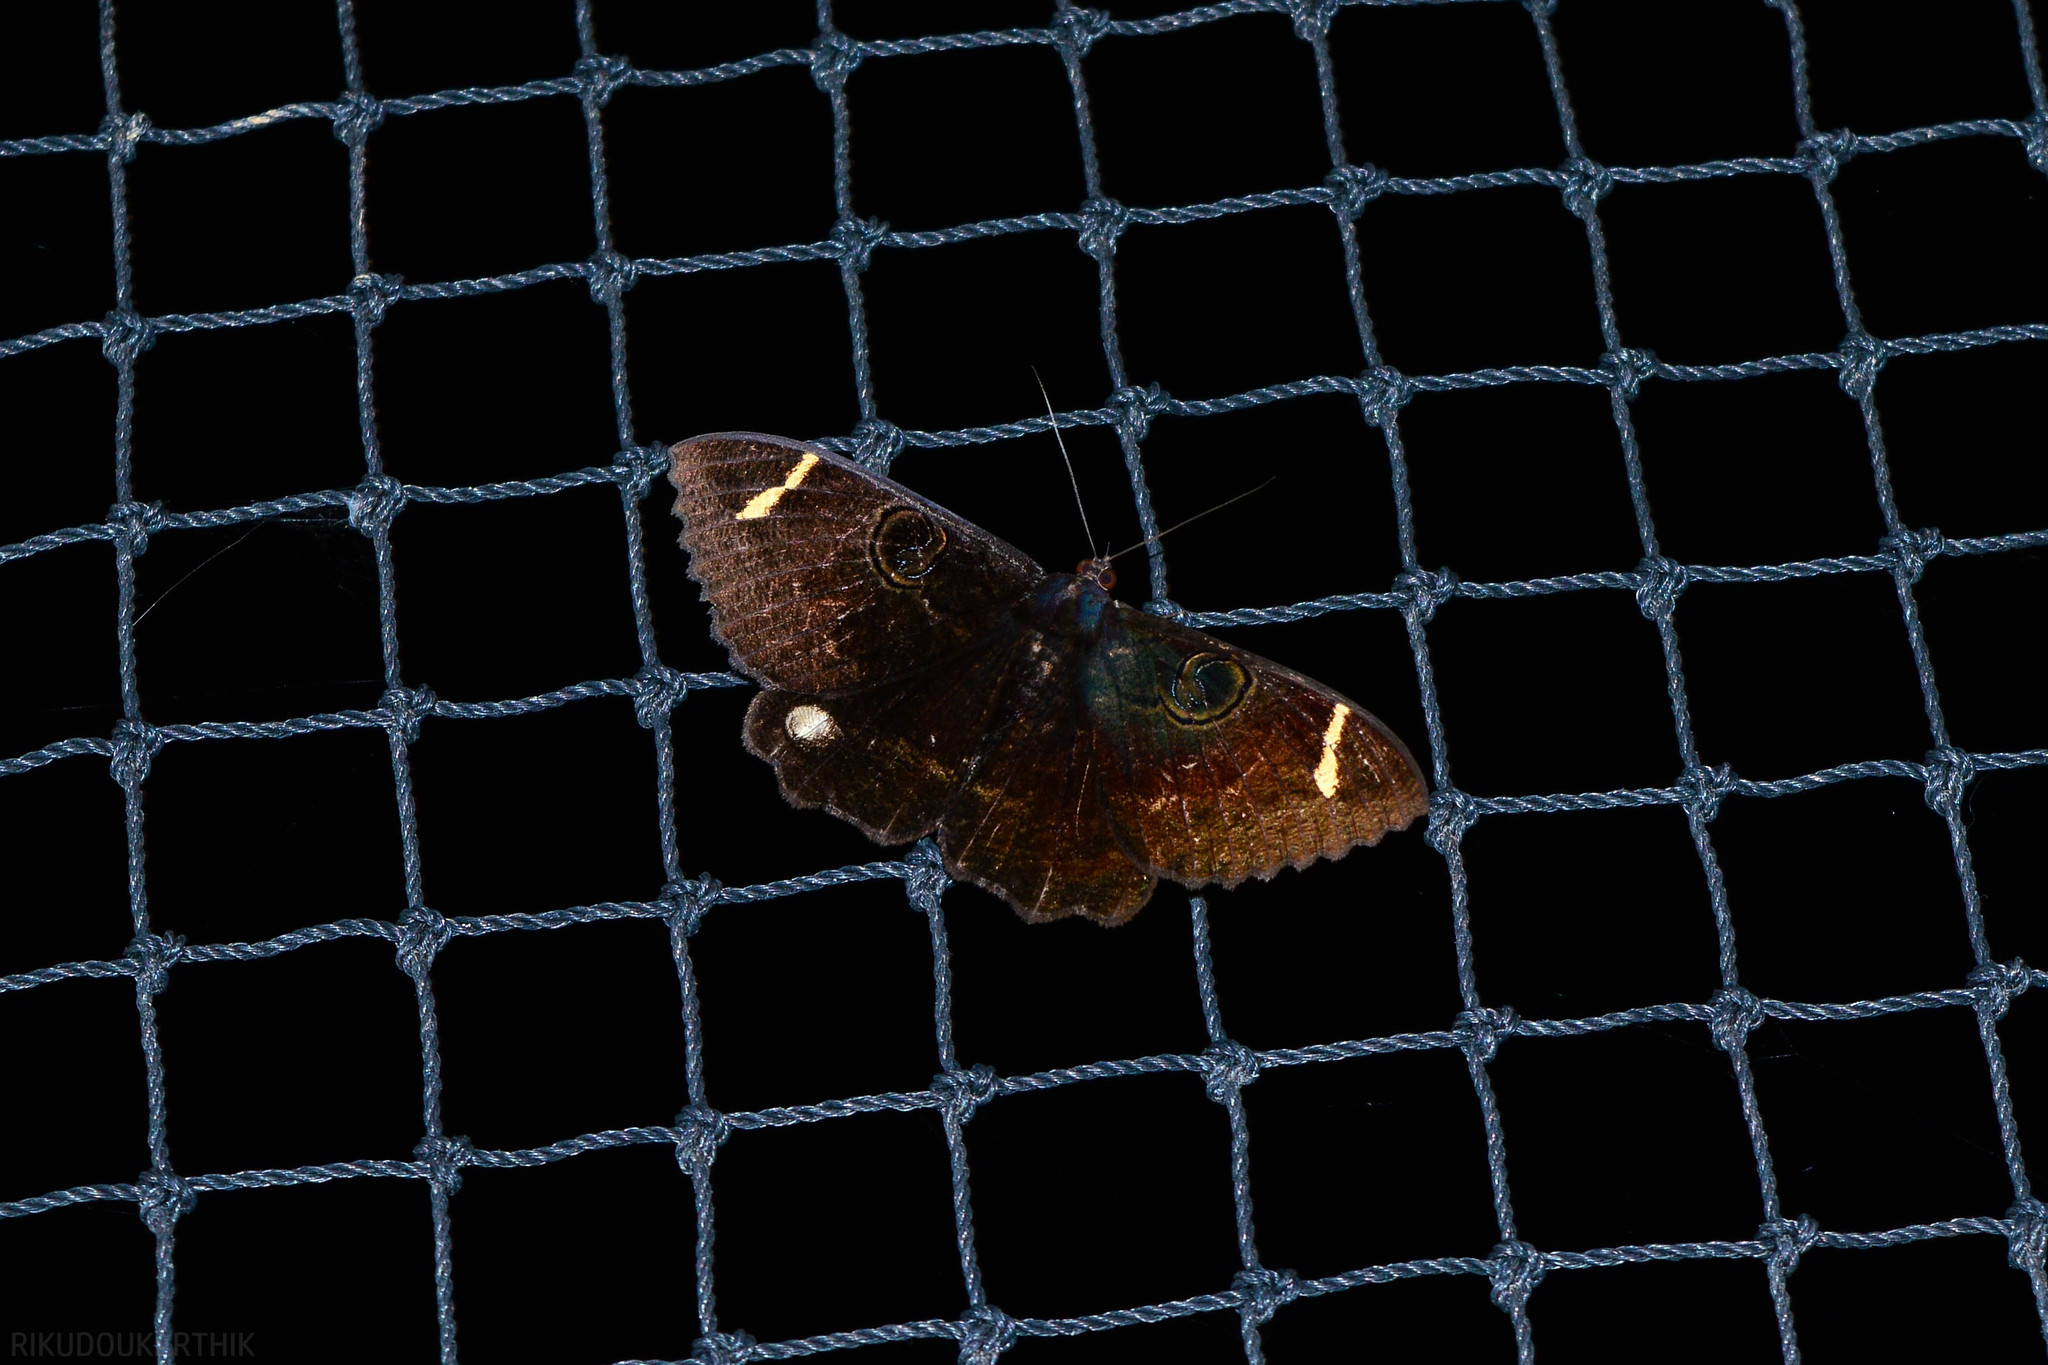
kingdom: Animalia
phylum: Arthropoda
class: Insecta
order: Lepidoptera
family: Erebidae
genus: Erebus
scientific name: Erebus hieroglyphica
